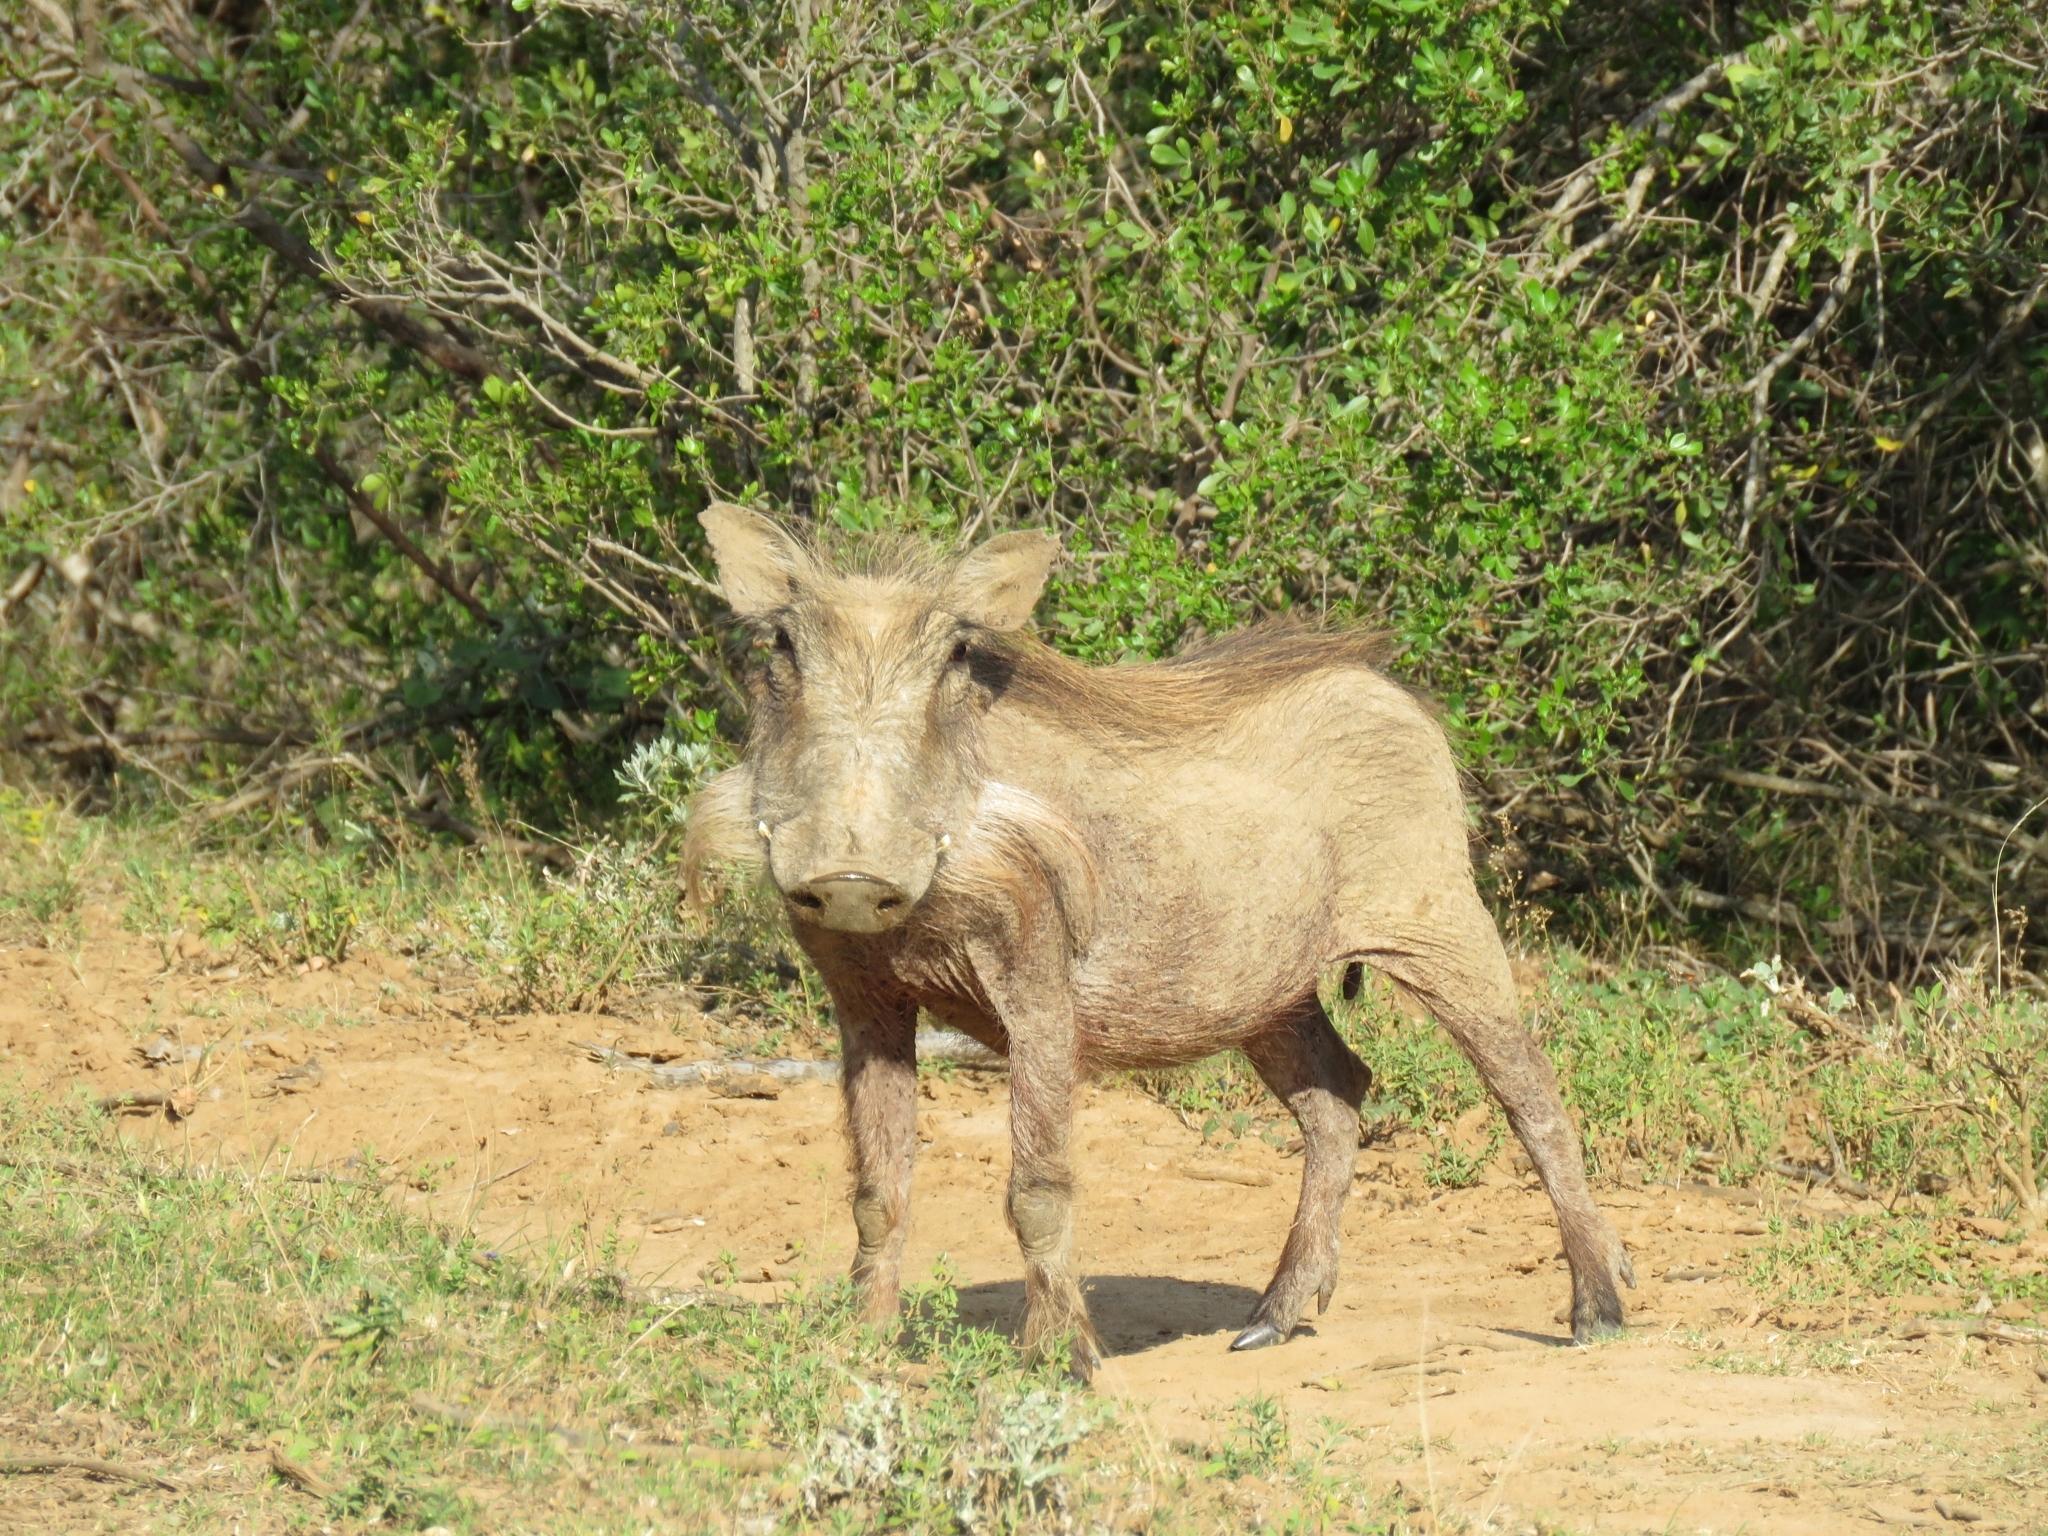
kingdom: Animalia
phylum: Chordata
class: Mammalia
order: Artiodactyla
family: Suidae
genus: Phacochoerus
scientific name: Phacochoerus africanus
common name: Common warthog
